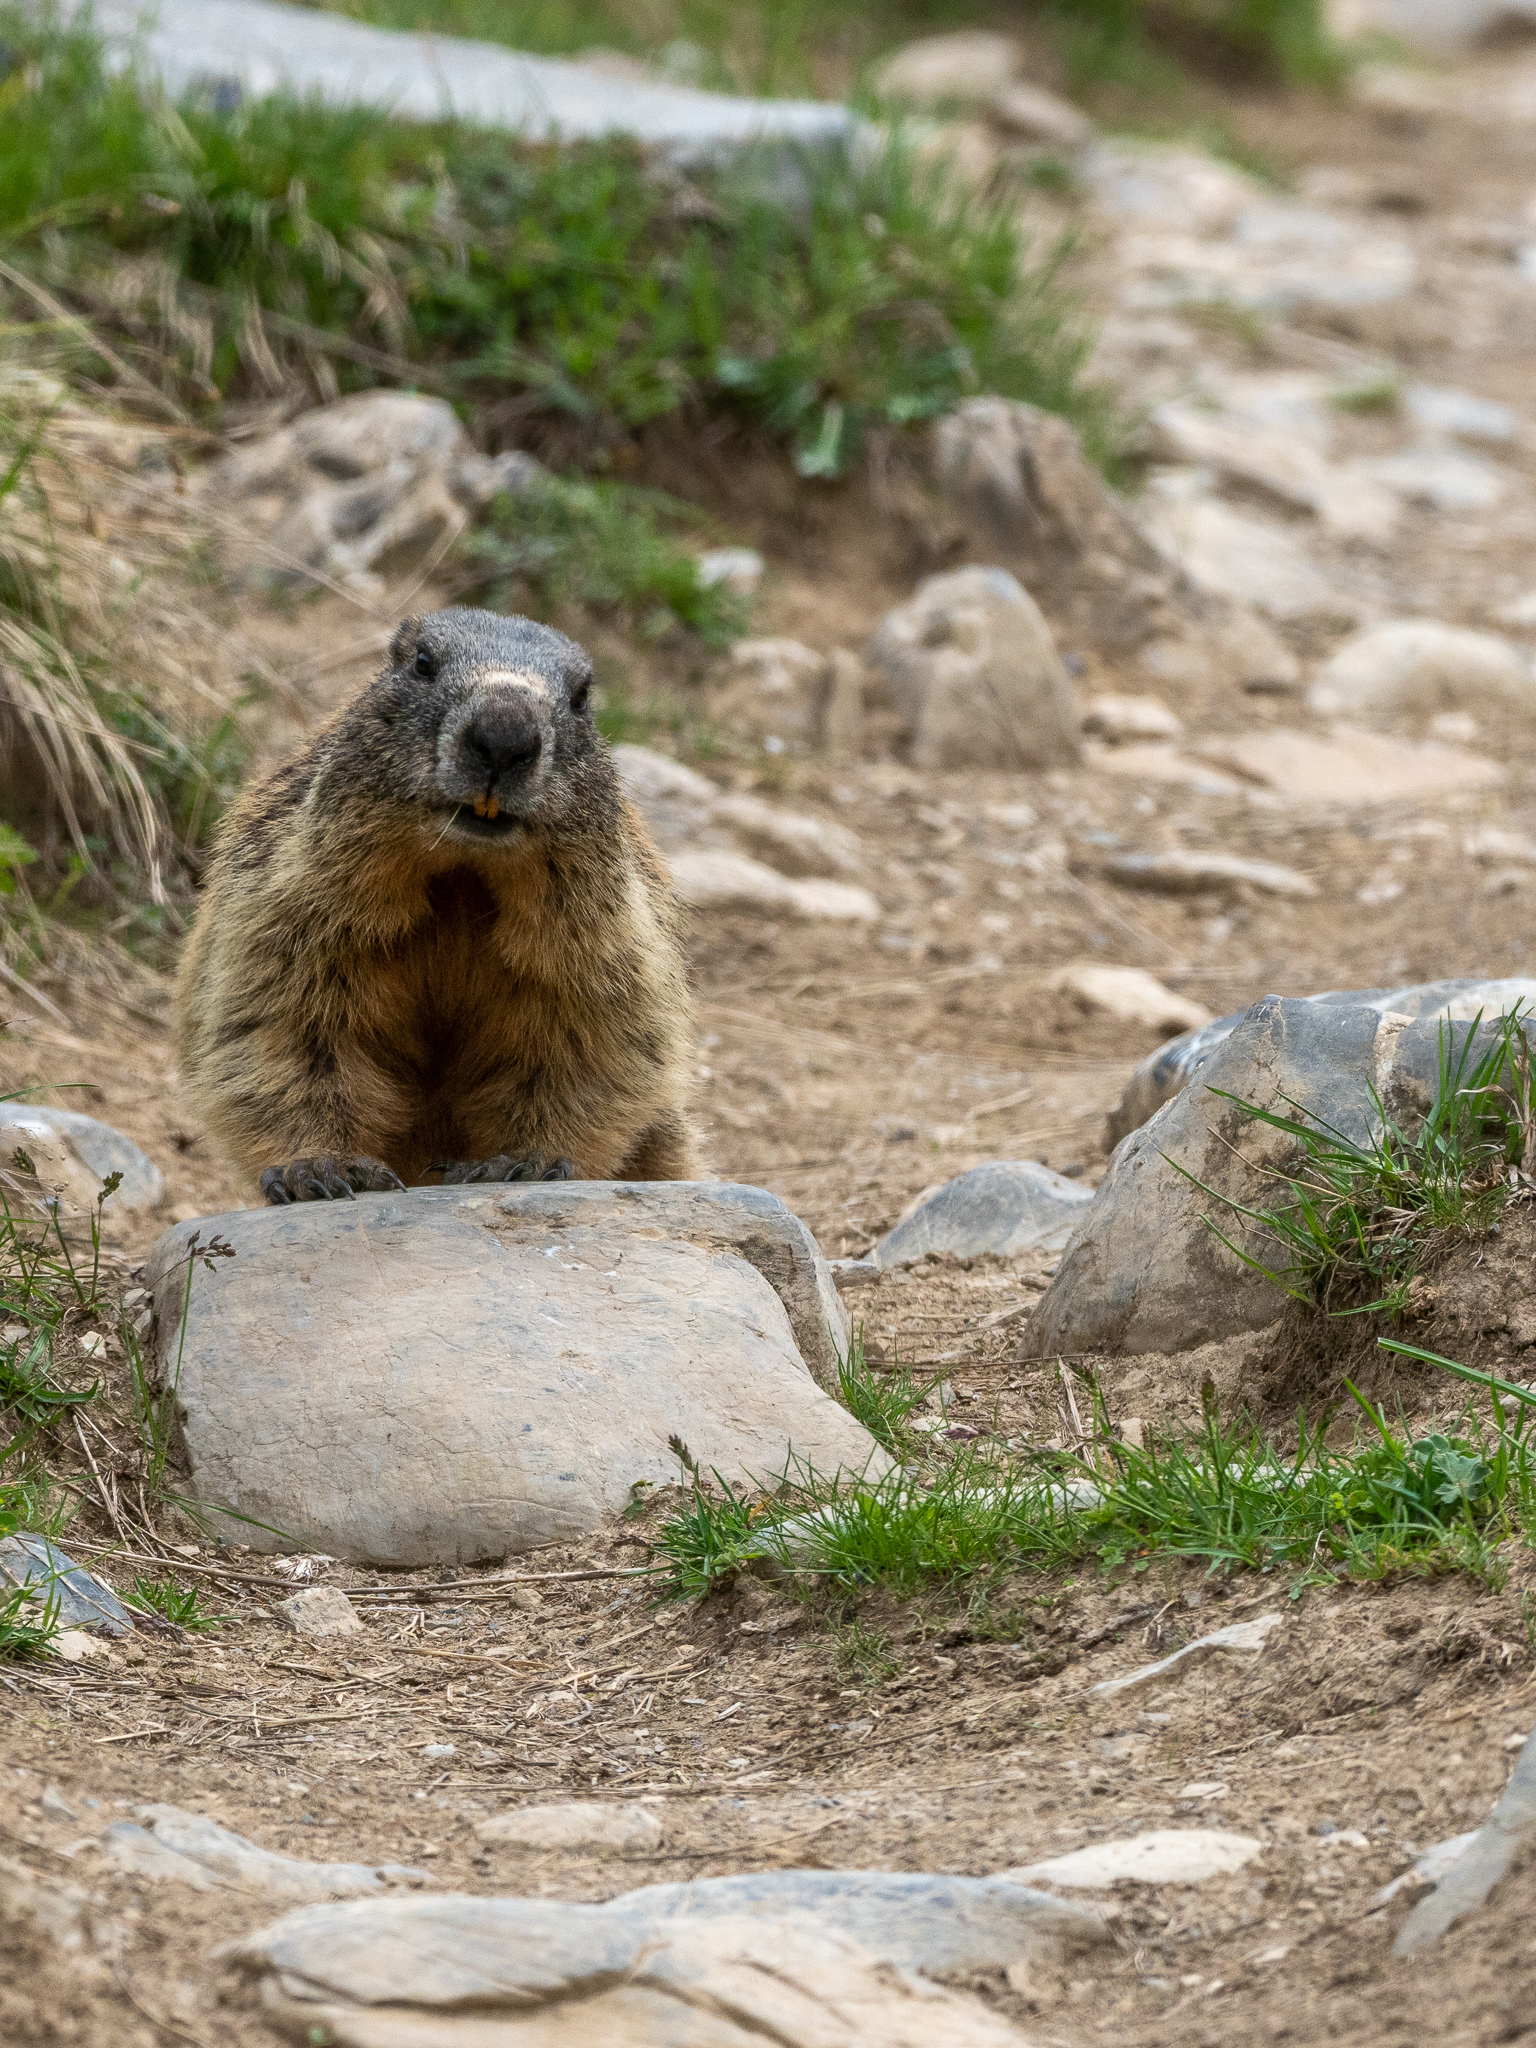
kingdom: Animalia
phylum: Chordata
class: Mammalia
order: Rodentia
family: Sciuridae
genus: Marmota
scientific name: Marmota marmota
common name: Alpine marmot
